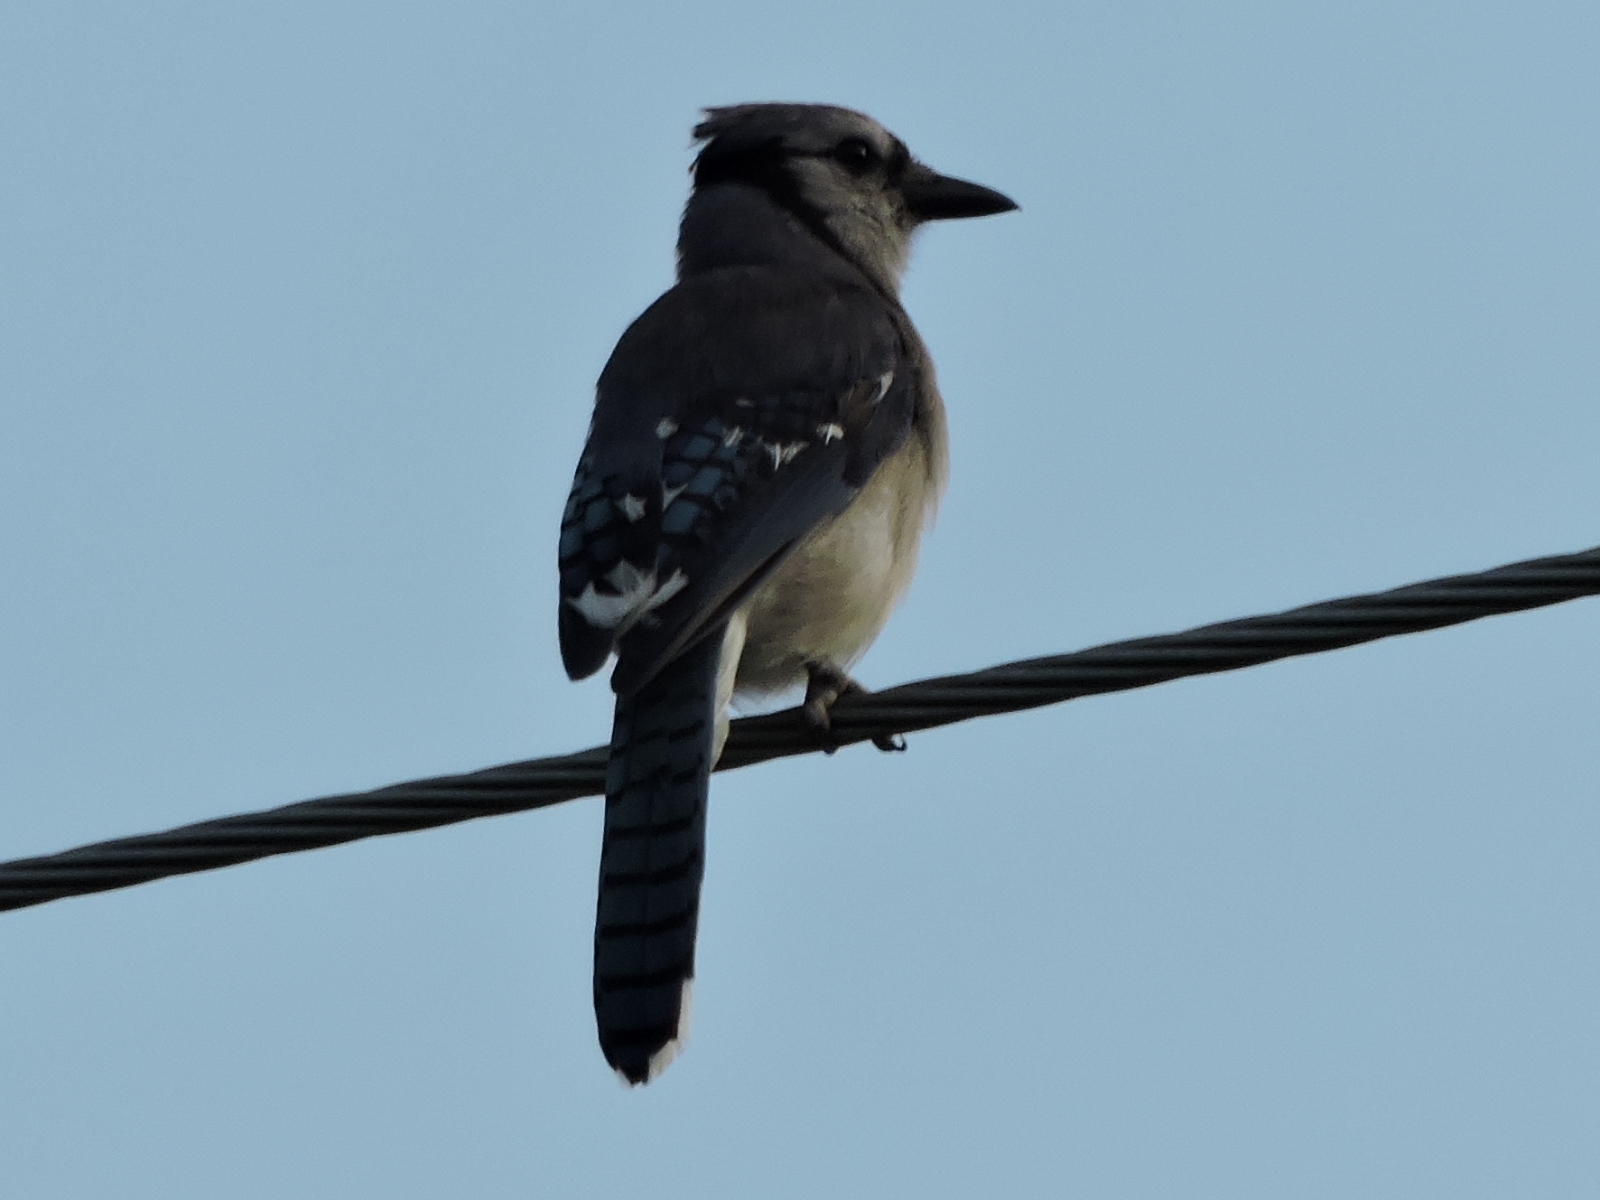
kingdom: Animalia
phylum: Chordata
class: Aves
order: Passeriformes
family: Corvidae
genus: Cyanocitta
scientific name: Cyanocitta cristata
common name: Blue jay
